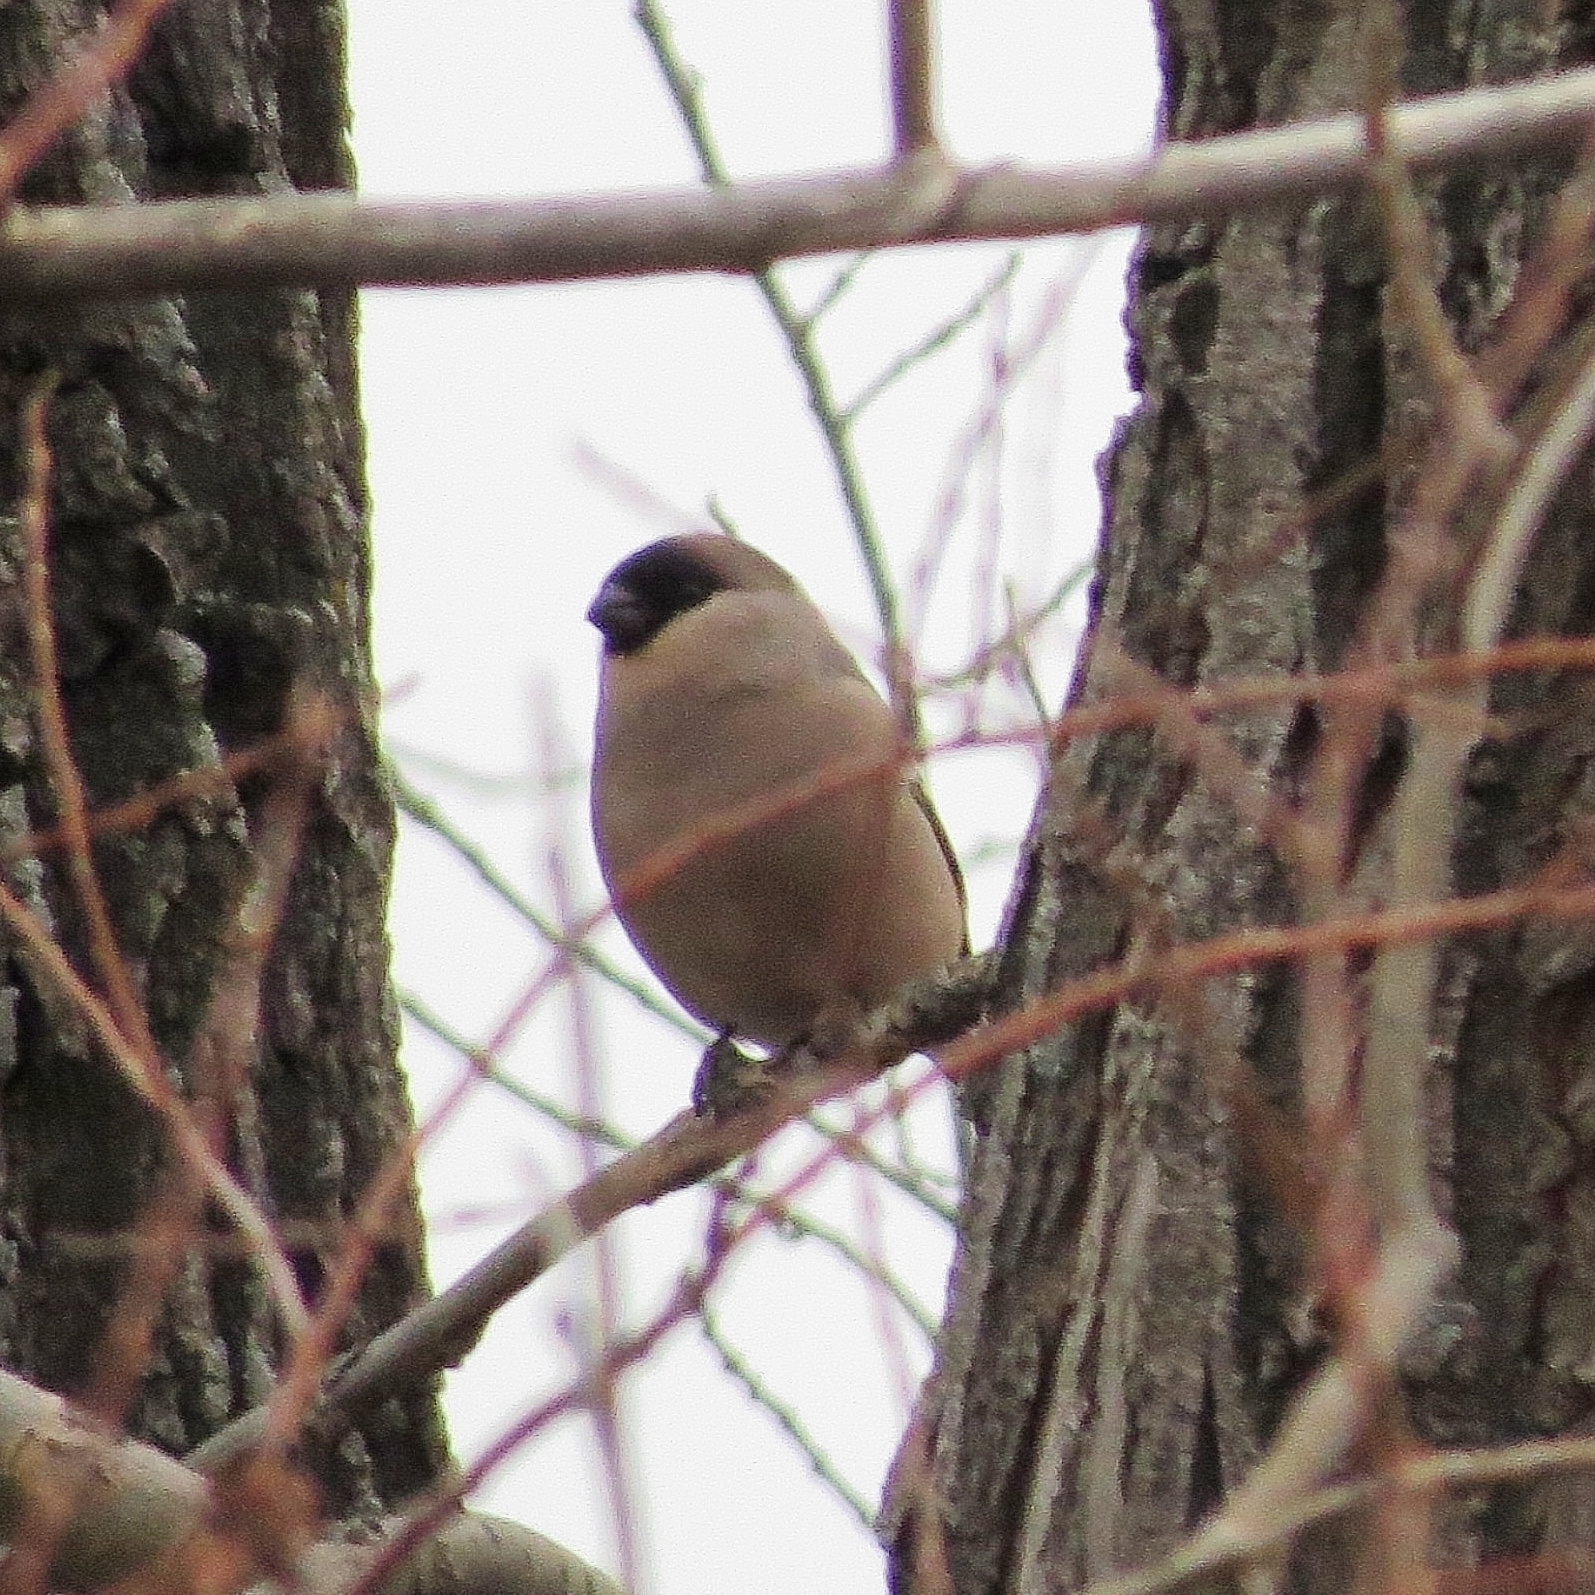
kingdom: Animalia
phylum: Chordata
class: Aves
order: Passeriformes
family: Fringillidae
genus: Pyrrhula
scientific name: Pyrrhula pyrrhula
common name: Eurasian bullfinch
